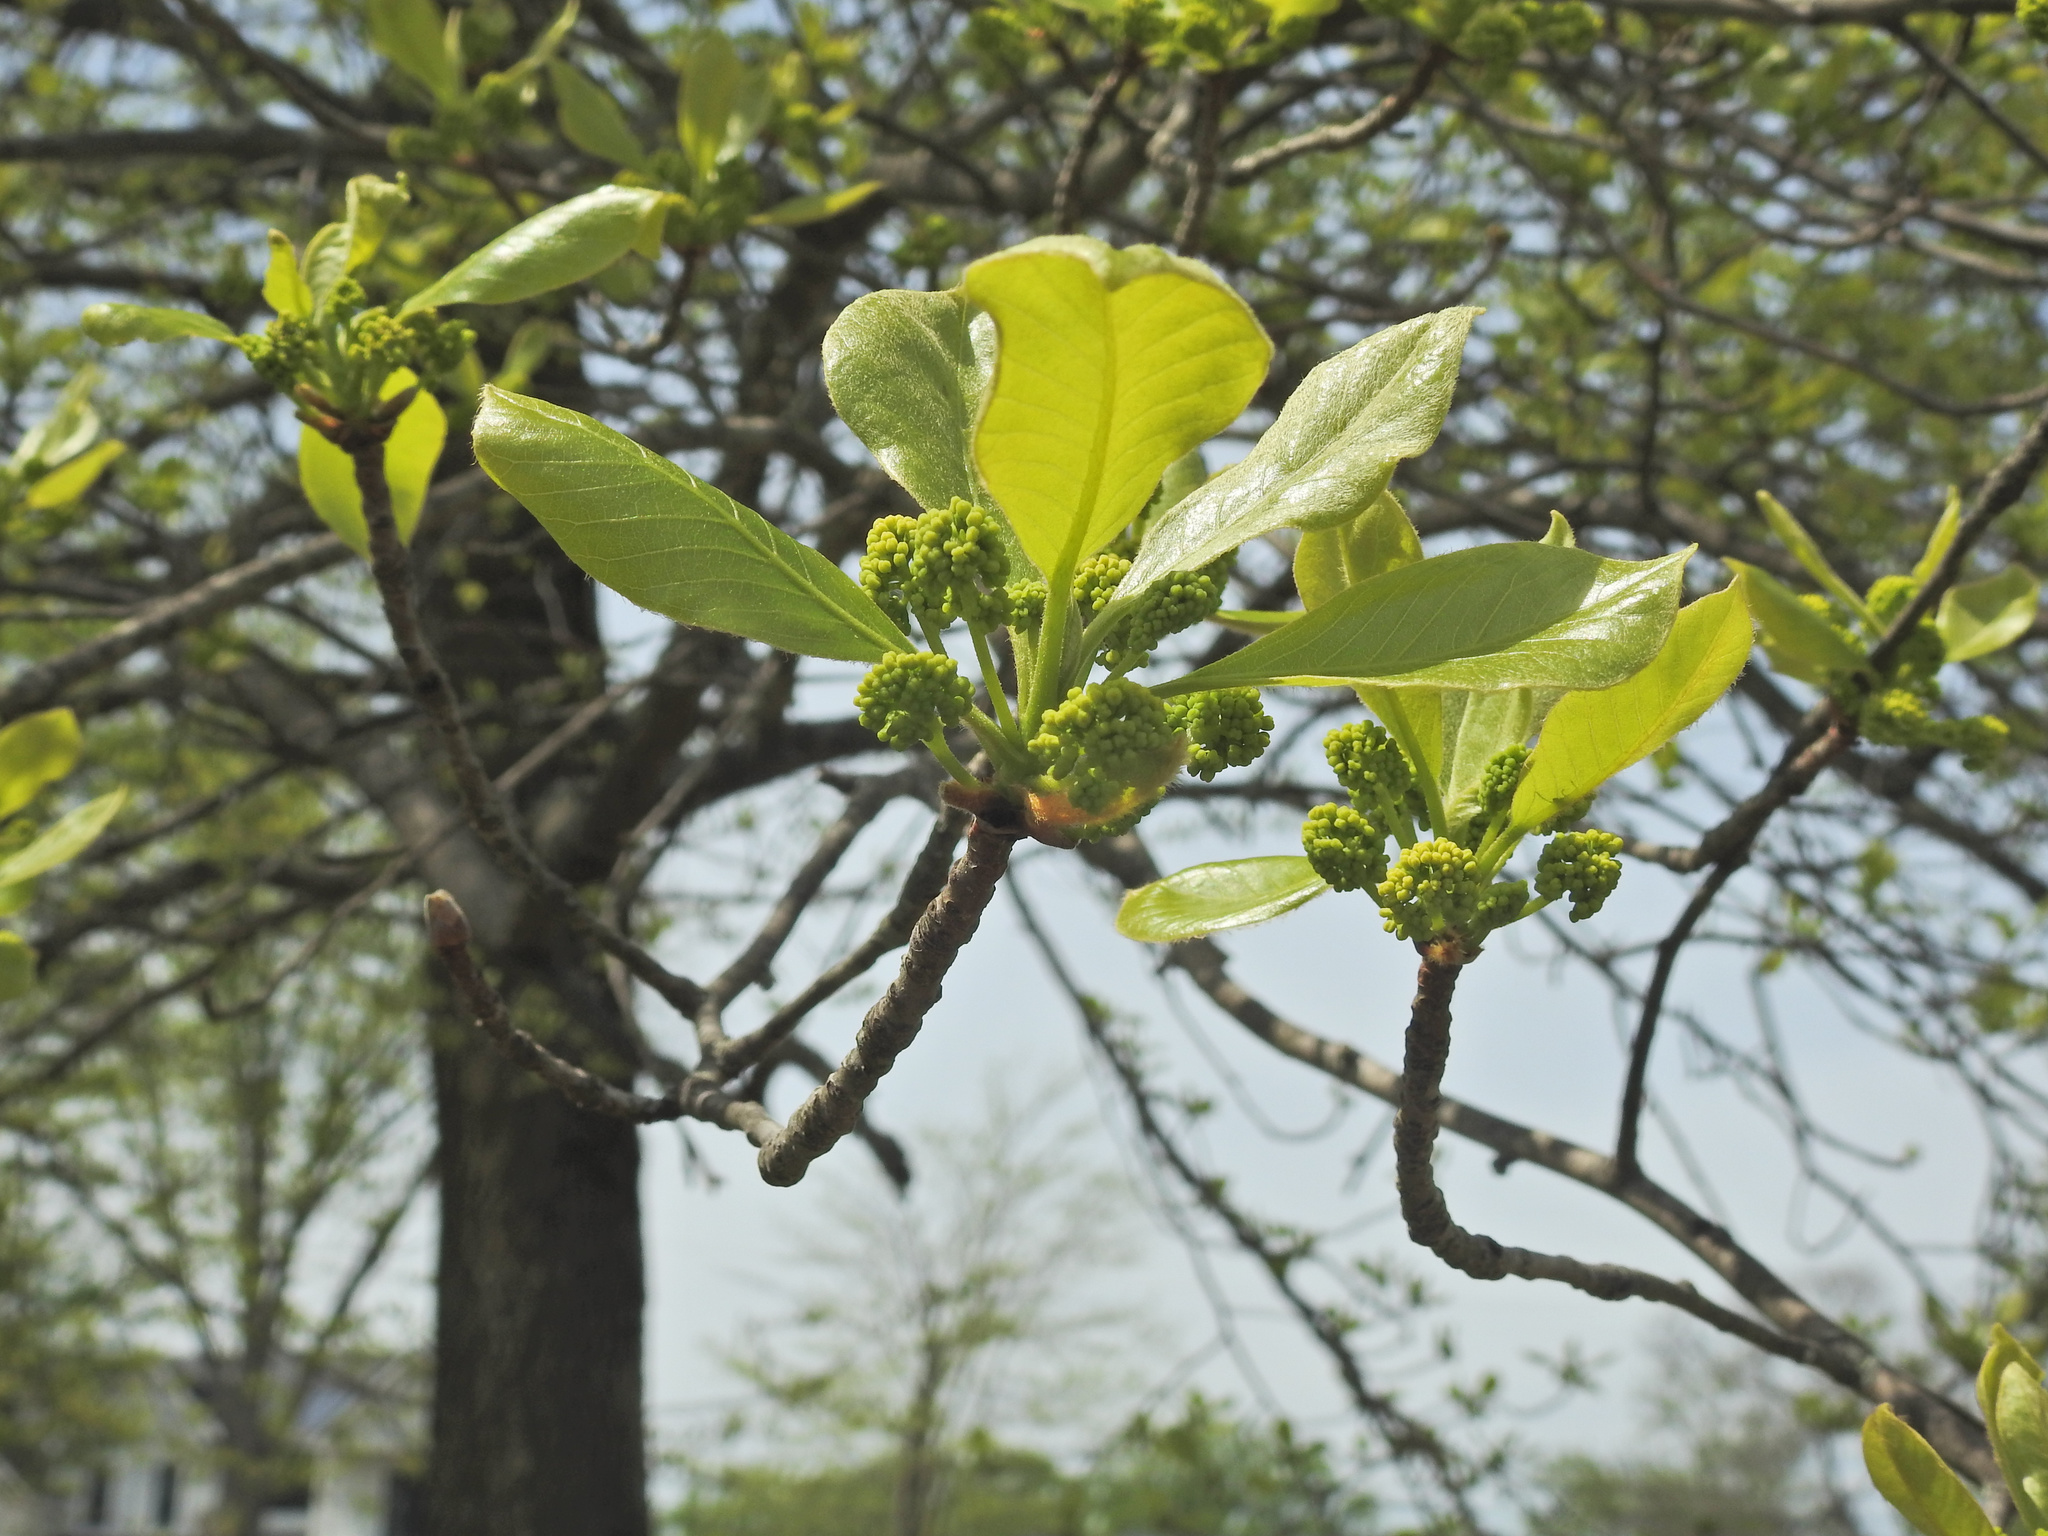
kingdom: Plantae
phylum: Tracheophyta
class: Magnoliopsida
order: Cornales
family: Nyssaceae
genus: Nyssa
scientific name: Nyssa sylvatica
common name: Black tupelo
